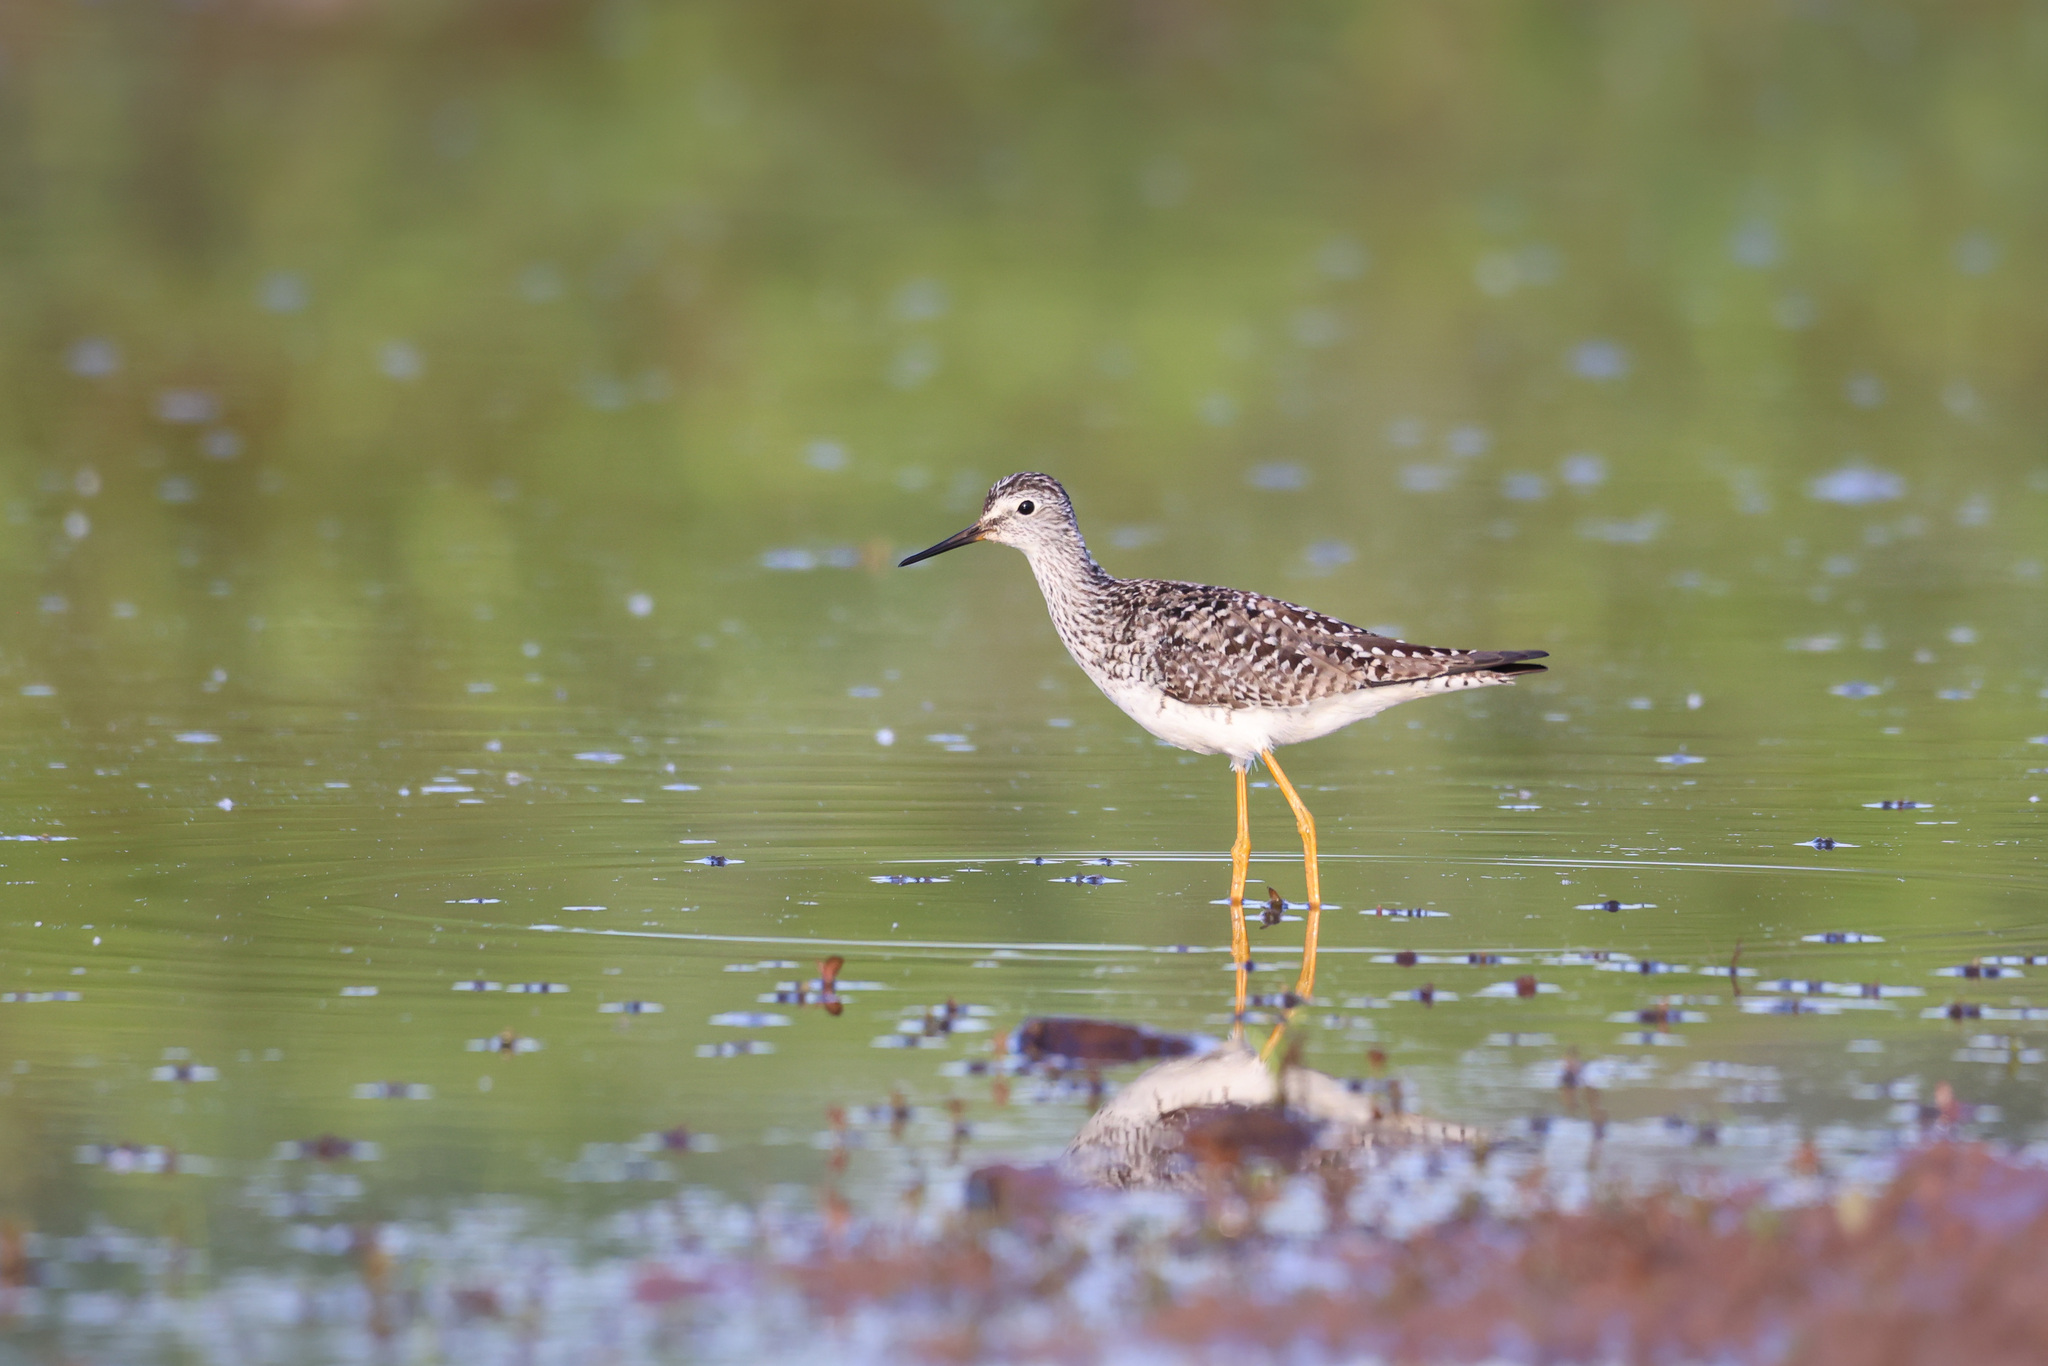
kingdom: Animalia
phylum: Chordata
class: Aves
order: Charadriiformes
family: Scolopacidae
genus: Tringa
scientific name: Tringa flavipes
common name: Lesser yellowlegs
